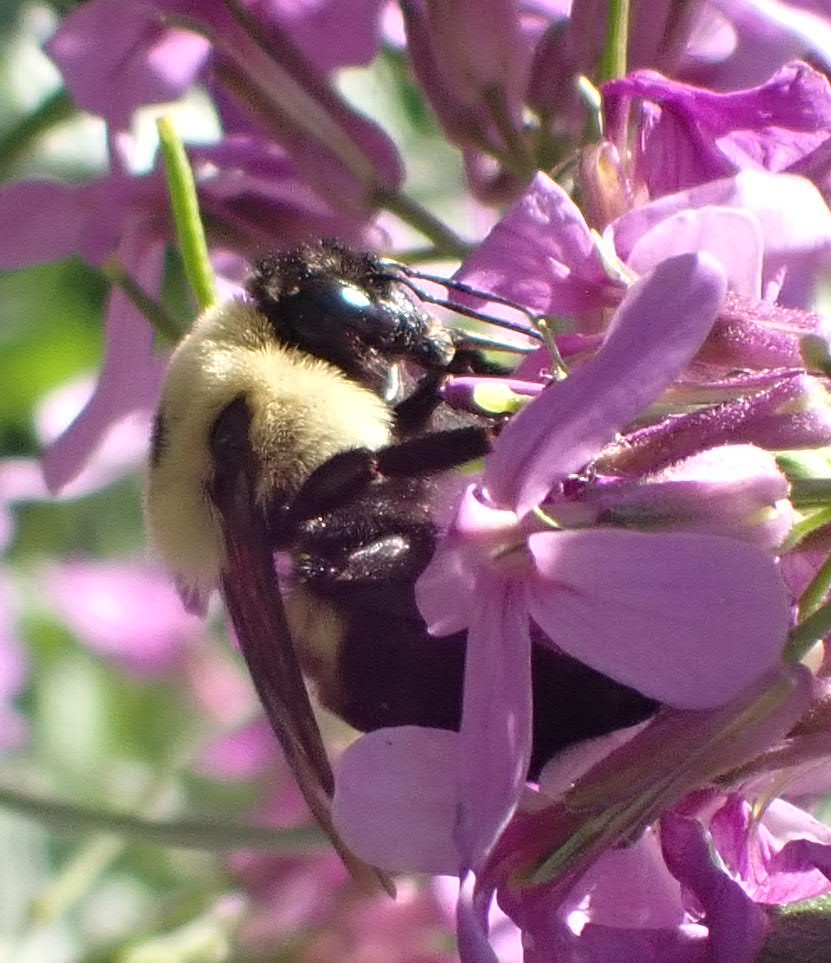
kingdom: Animalia
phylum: Arthropoda
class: Insecta
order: Hymenoptera
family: Apidae
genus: Bombus
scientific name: Bombus griseocollis
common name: Brown-belted bumble bee
